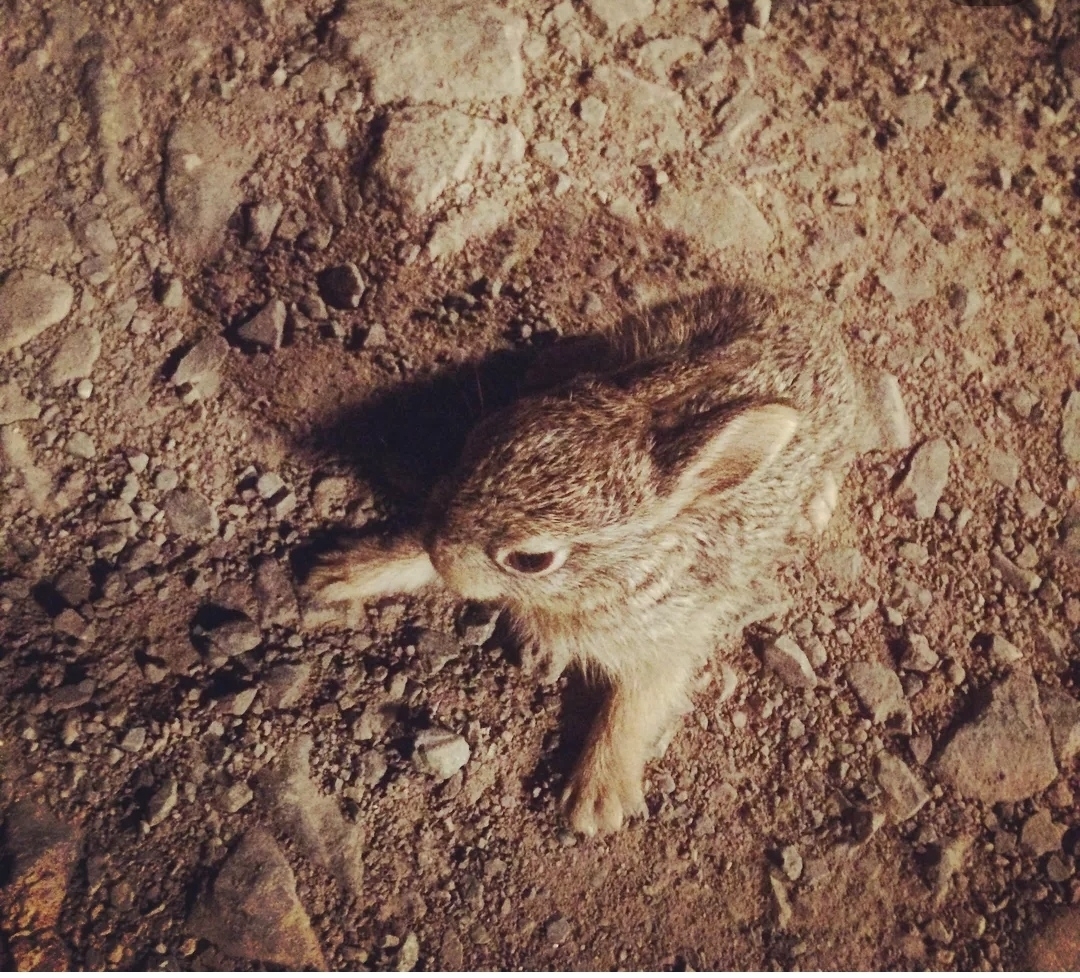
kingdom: Animalia
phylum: Chordata
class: Mammalia
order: Lagomorpha
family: Leporidae
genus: Lepus
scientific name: Lepus tolai
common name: Tolai hare
